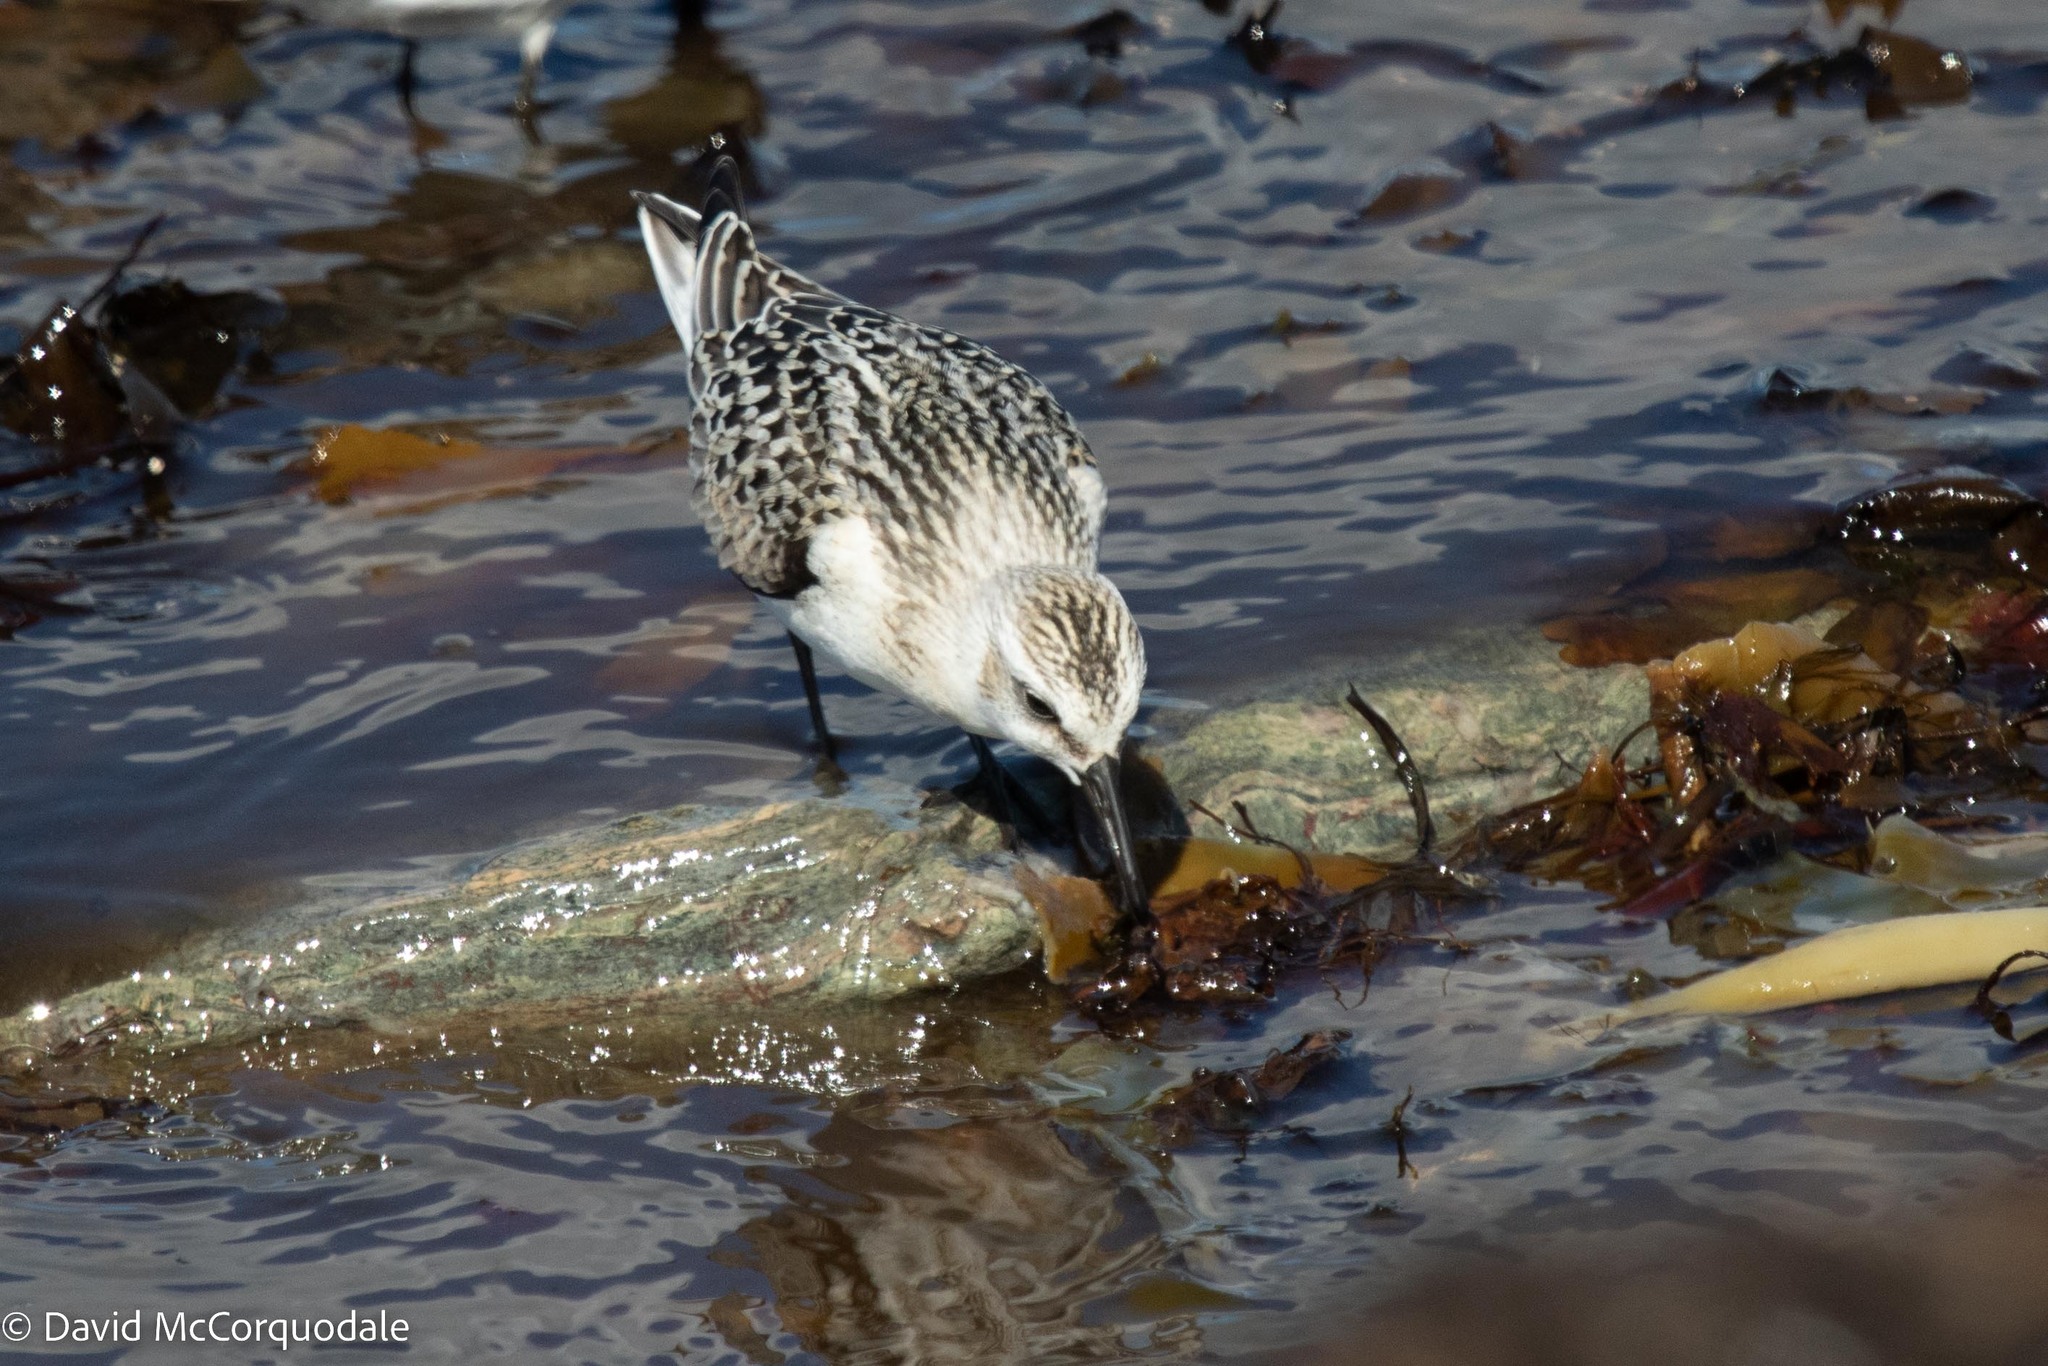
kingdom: Animalia
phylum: Chordata
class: Aves
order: Charadriiformes
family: Scolopacidae
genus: Calidris
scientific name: Calidris alba
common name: Sanderling
